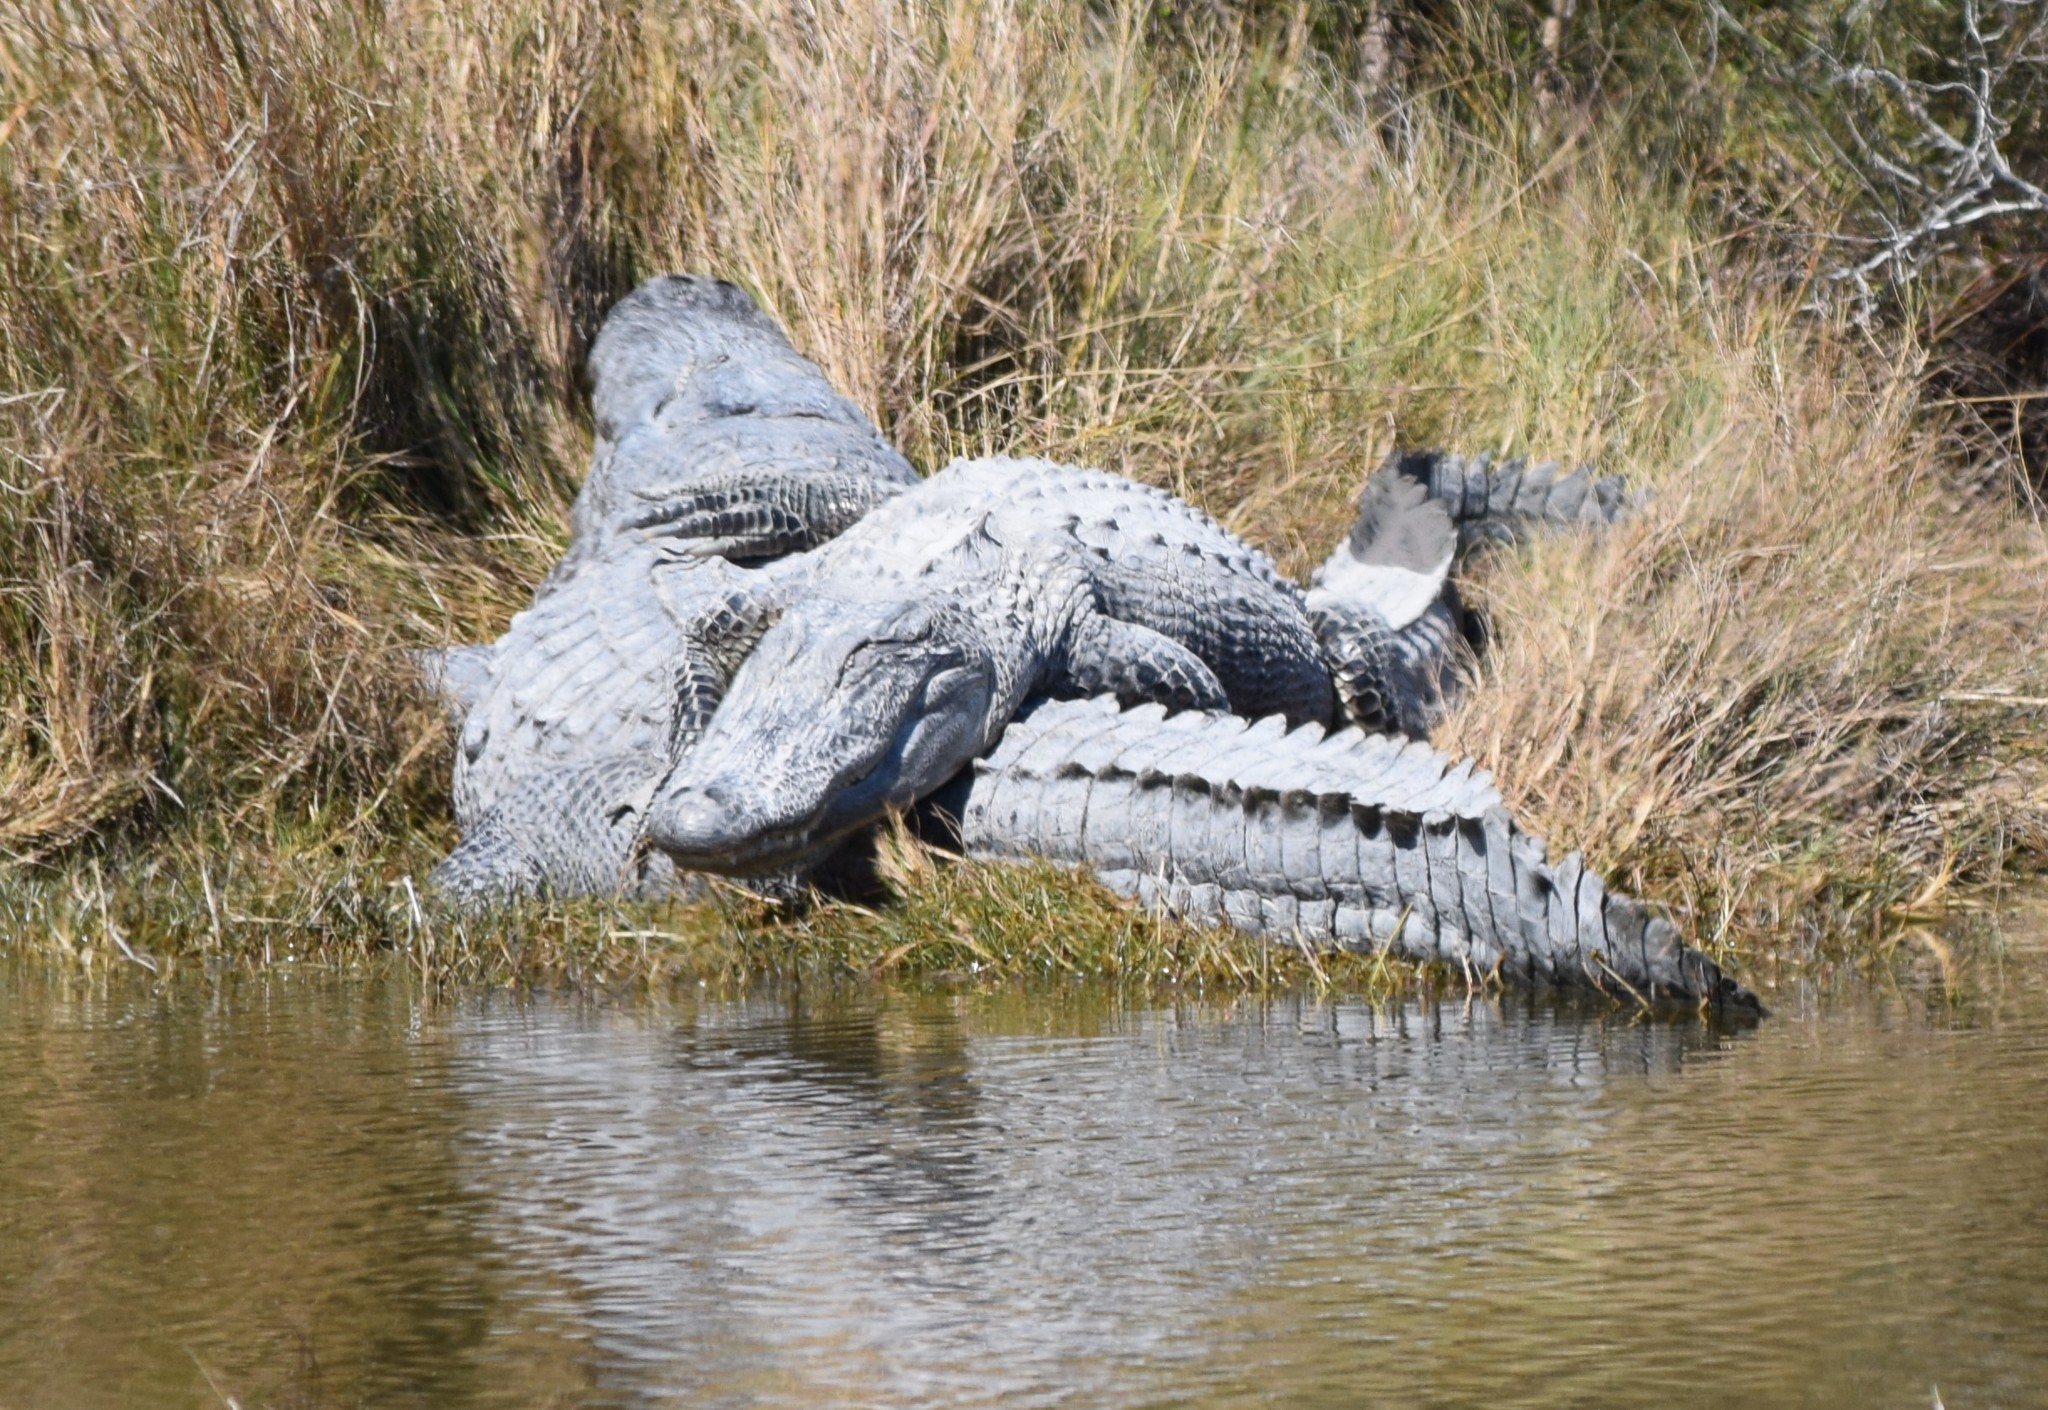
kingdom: Animalia
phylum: Chordata
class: Crocodylia
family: Alligatoridae
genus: Alligator
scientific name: Alligator mississippiensis
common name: American alligator
